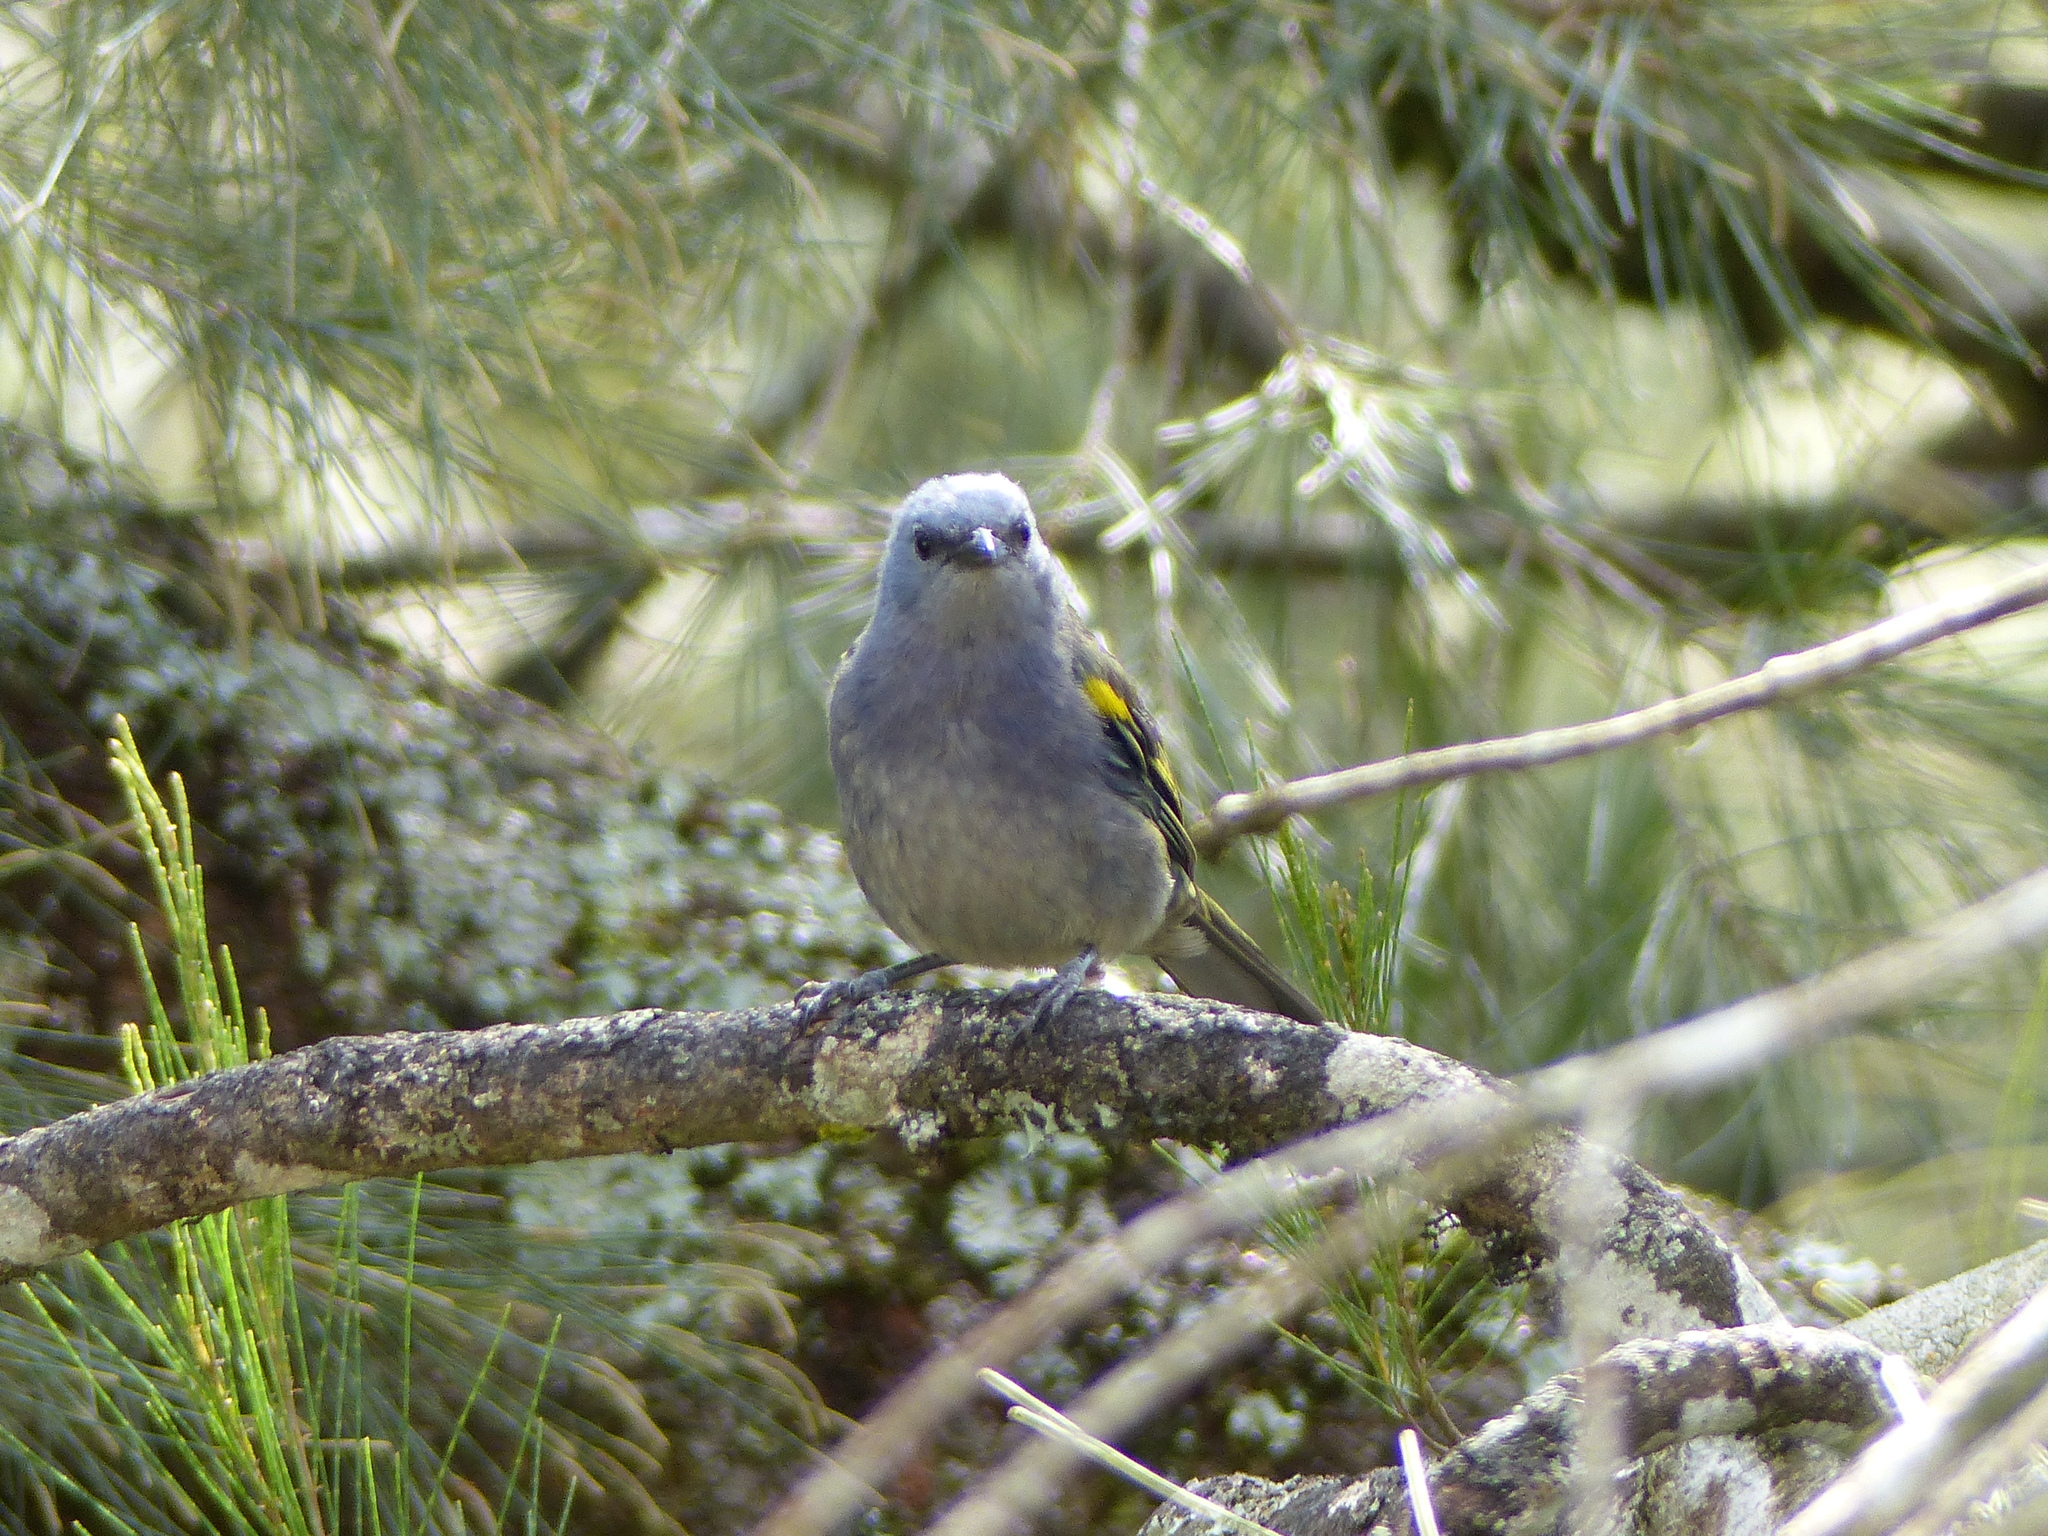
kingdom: Animalia
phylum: Chordata
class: Aves
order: Passeriformes
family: Thraupidae
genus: Thraupis
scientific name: Thraupis ornata
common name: Golden-chevroned tanager
